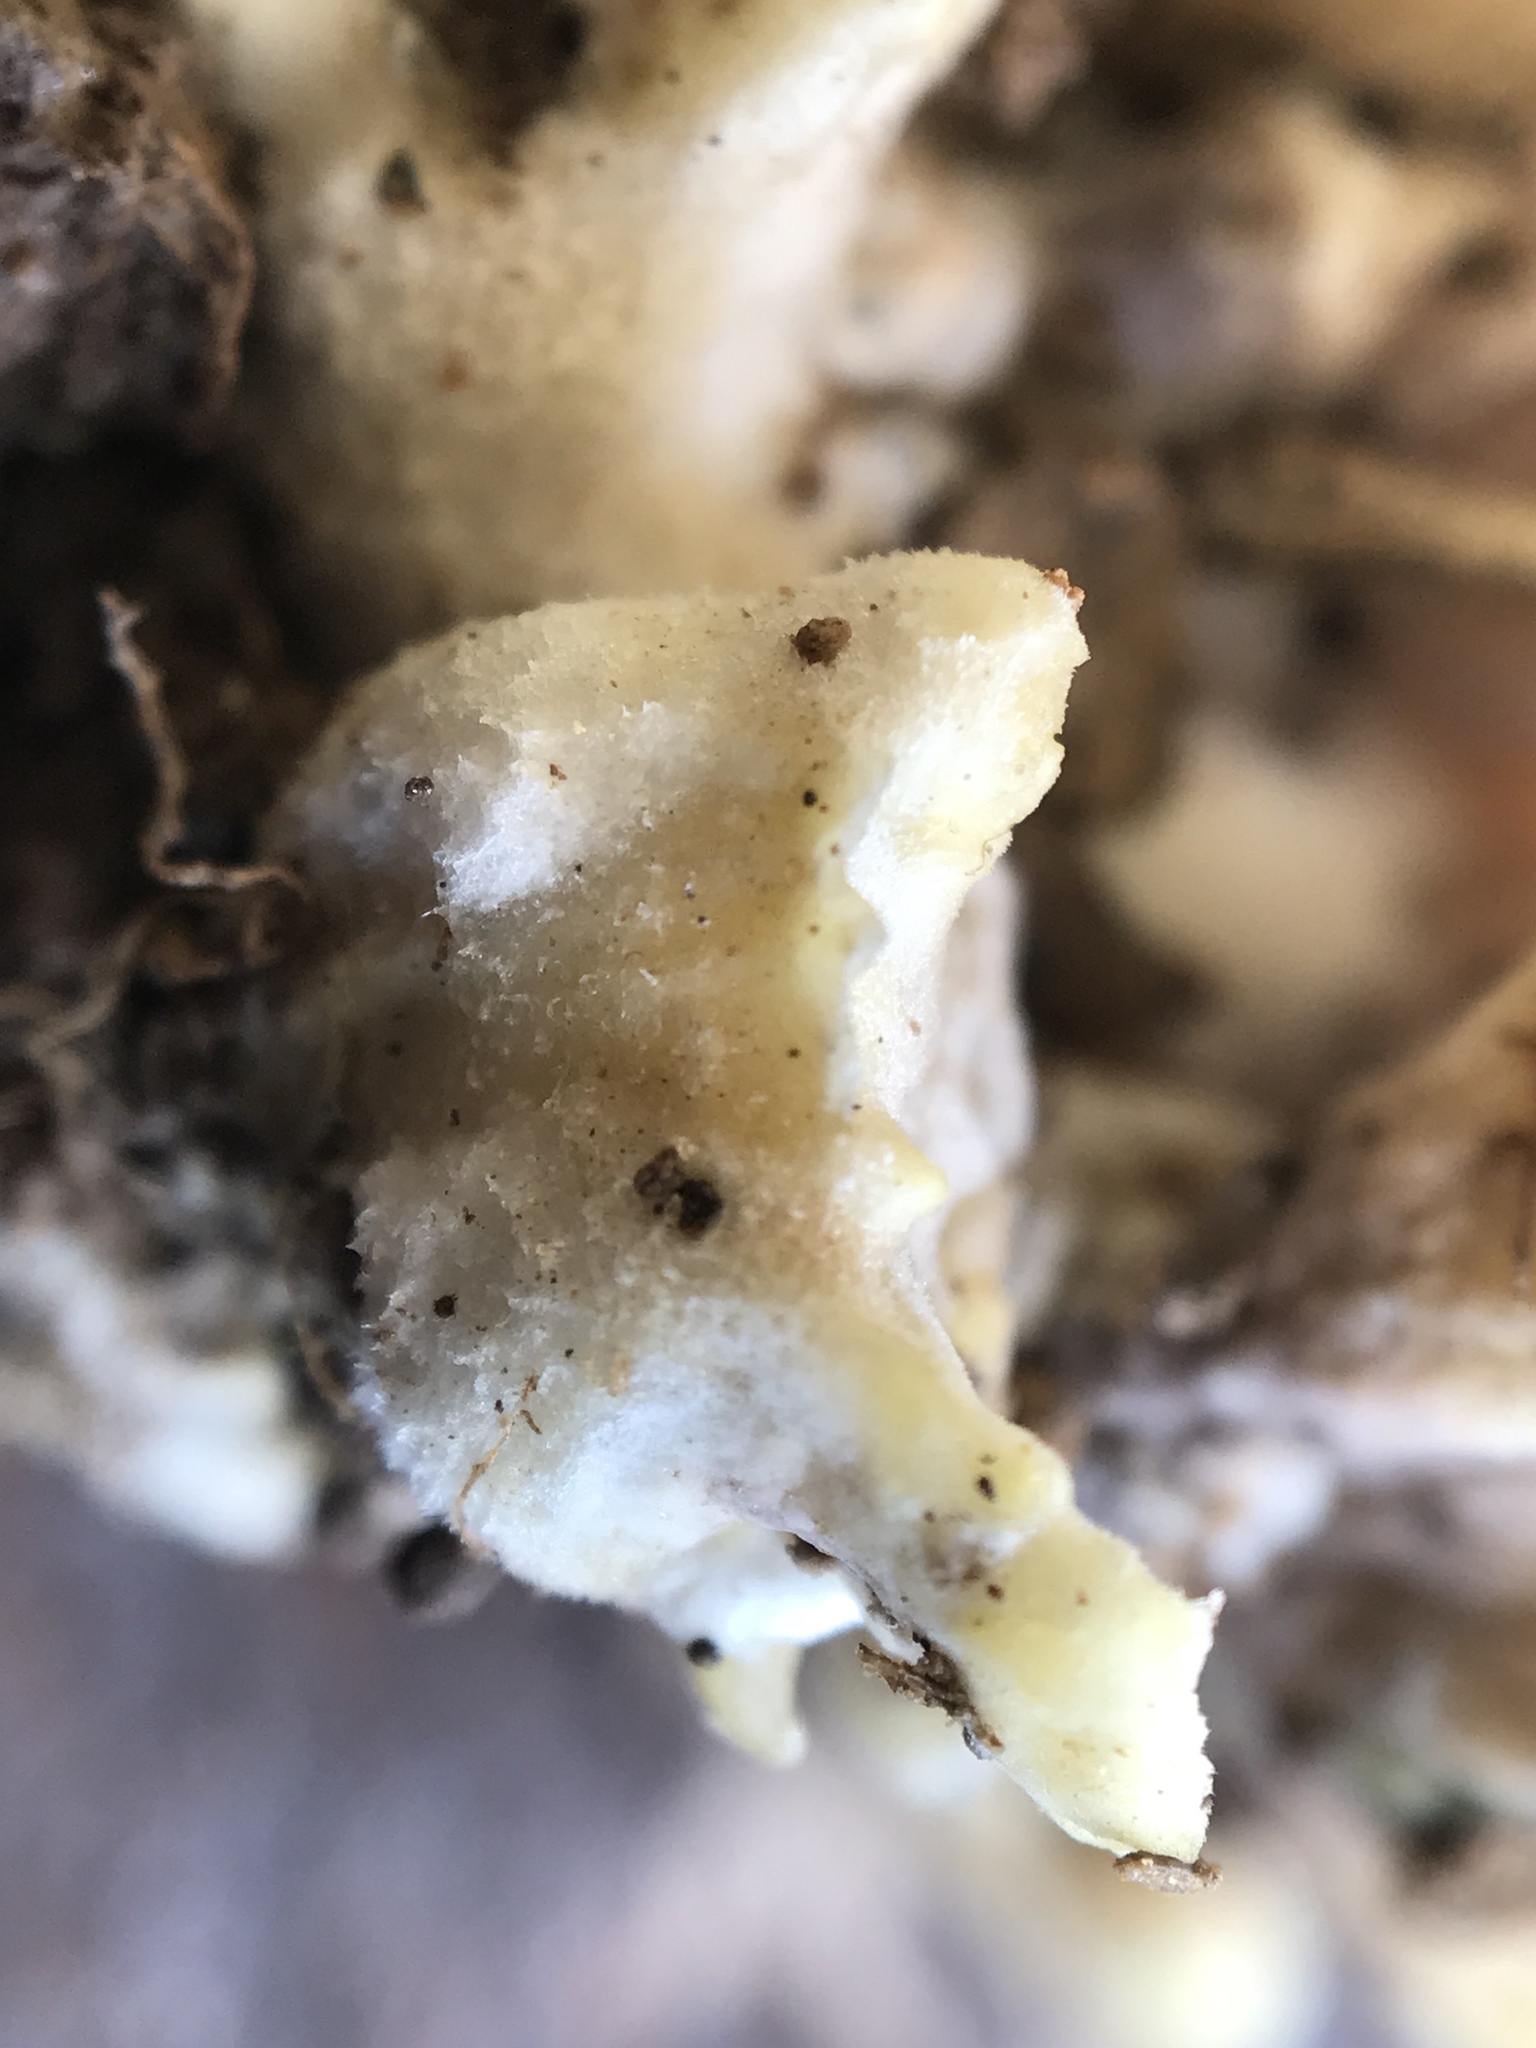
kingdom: Fungi
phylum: Basidiomycota
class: Agaricomycetes
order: Thelephorales
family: Thelephoraceae
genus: Thelephora
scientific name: Thelephora vialis
